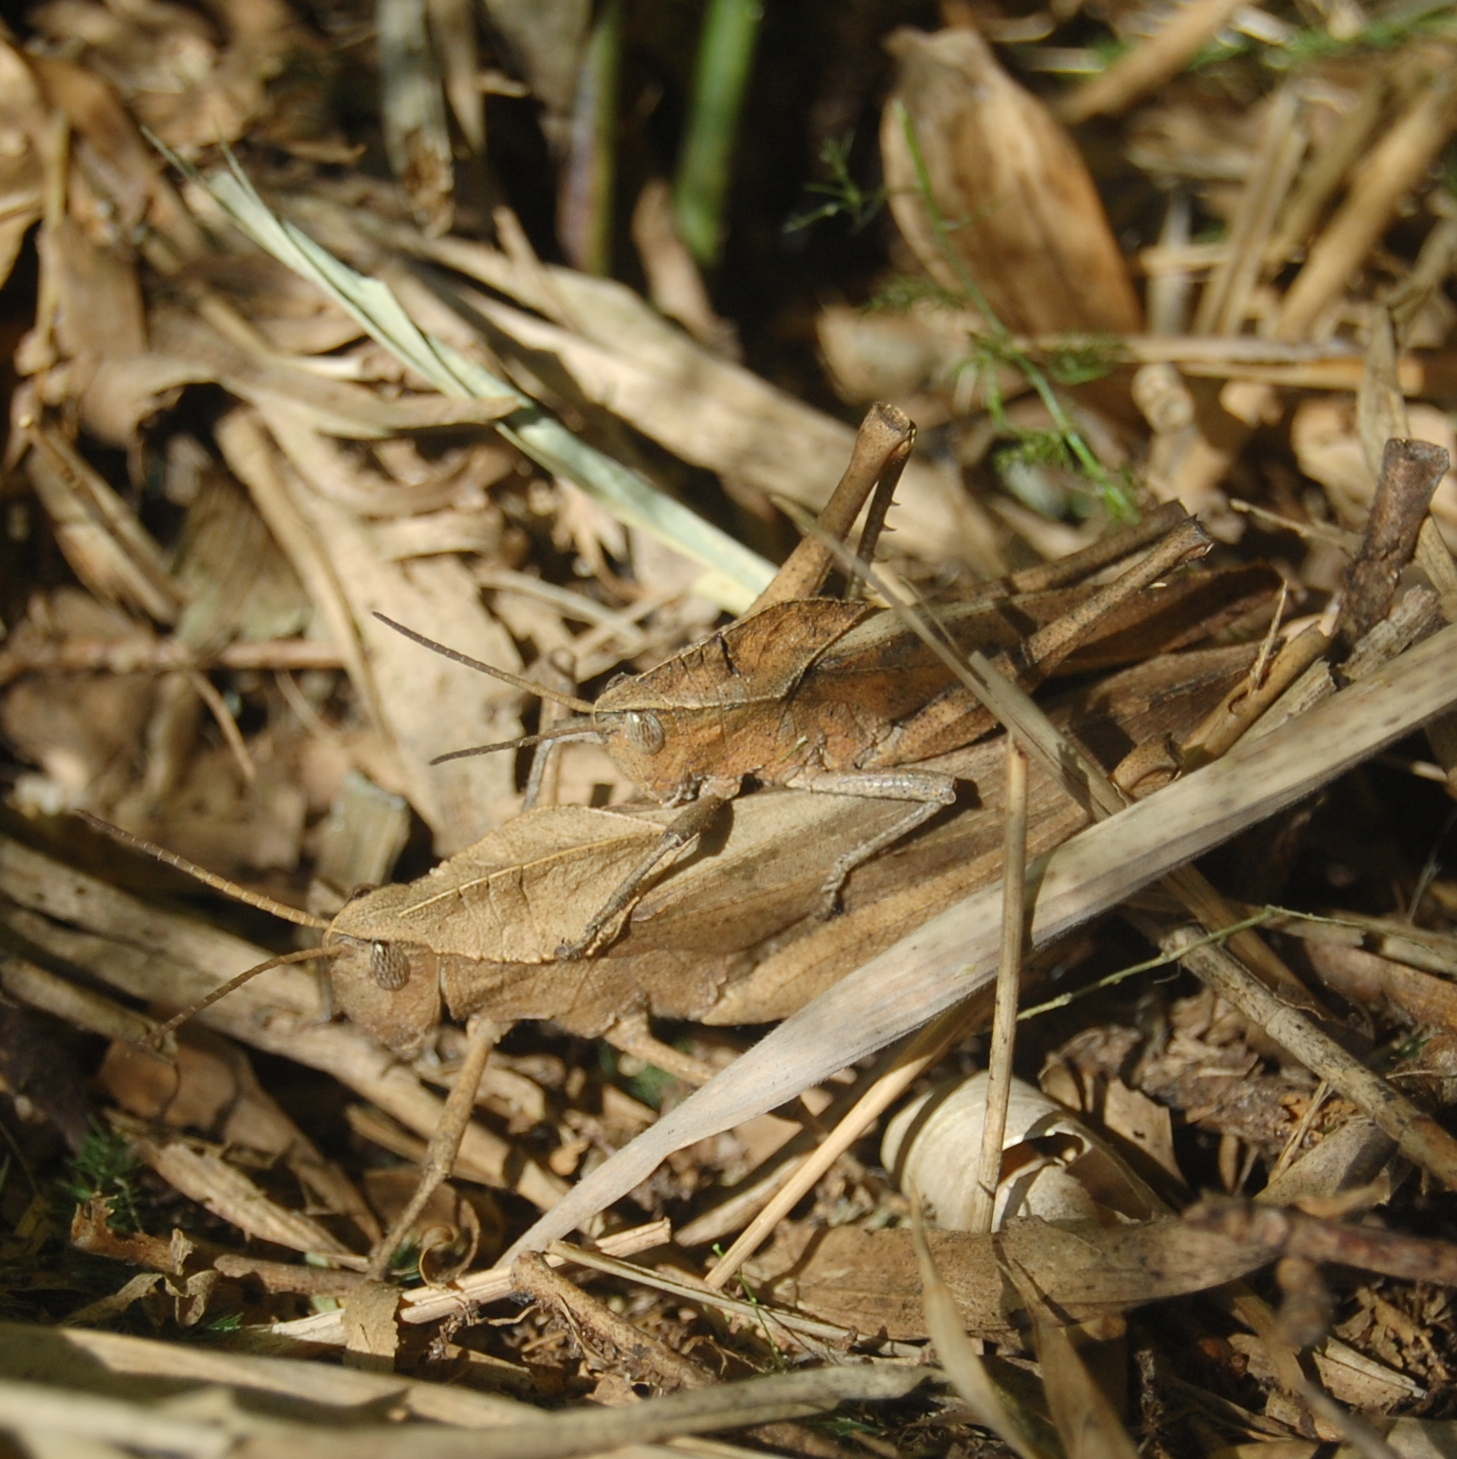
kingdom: Animalia
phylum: Arthropoda
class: Insecta
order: Orthoptera
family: Romaleidae
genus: Xyleus
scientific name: Xyleus discoideus
